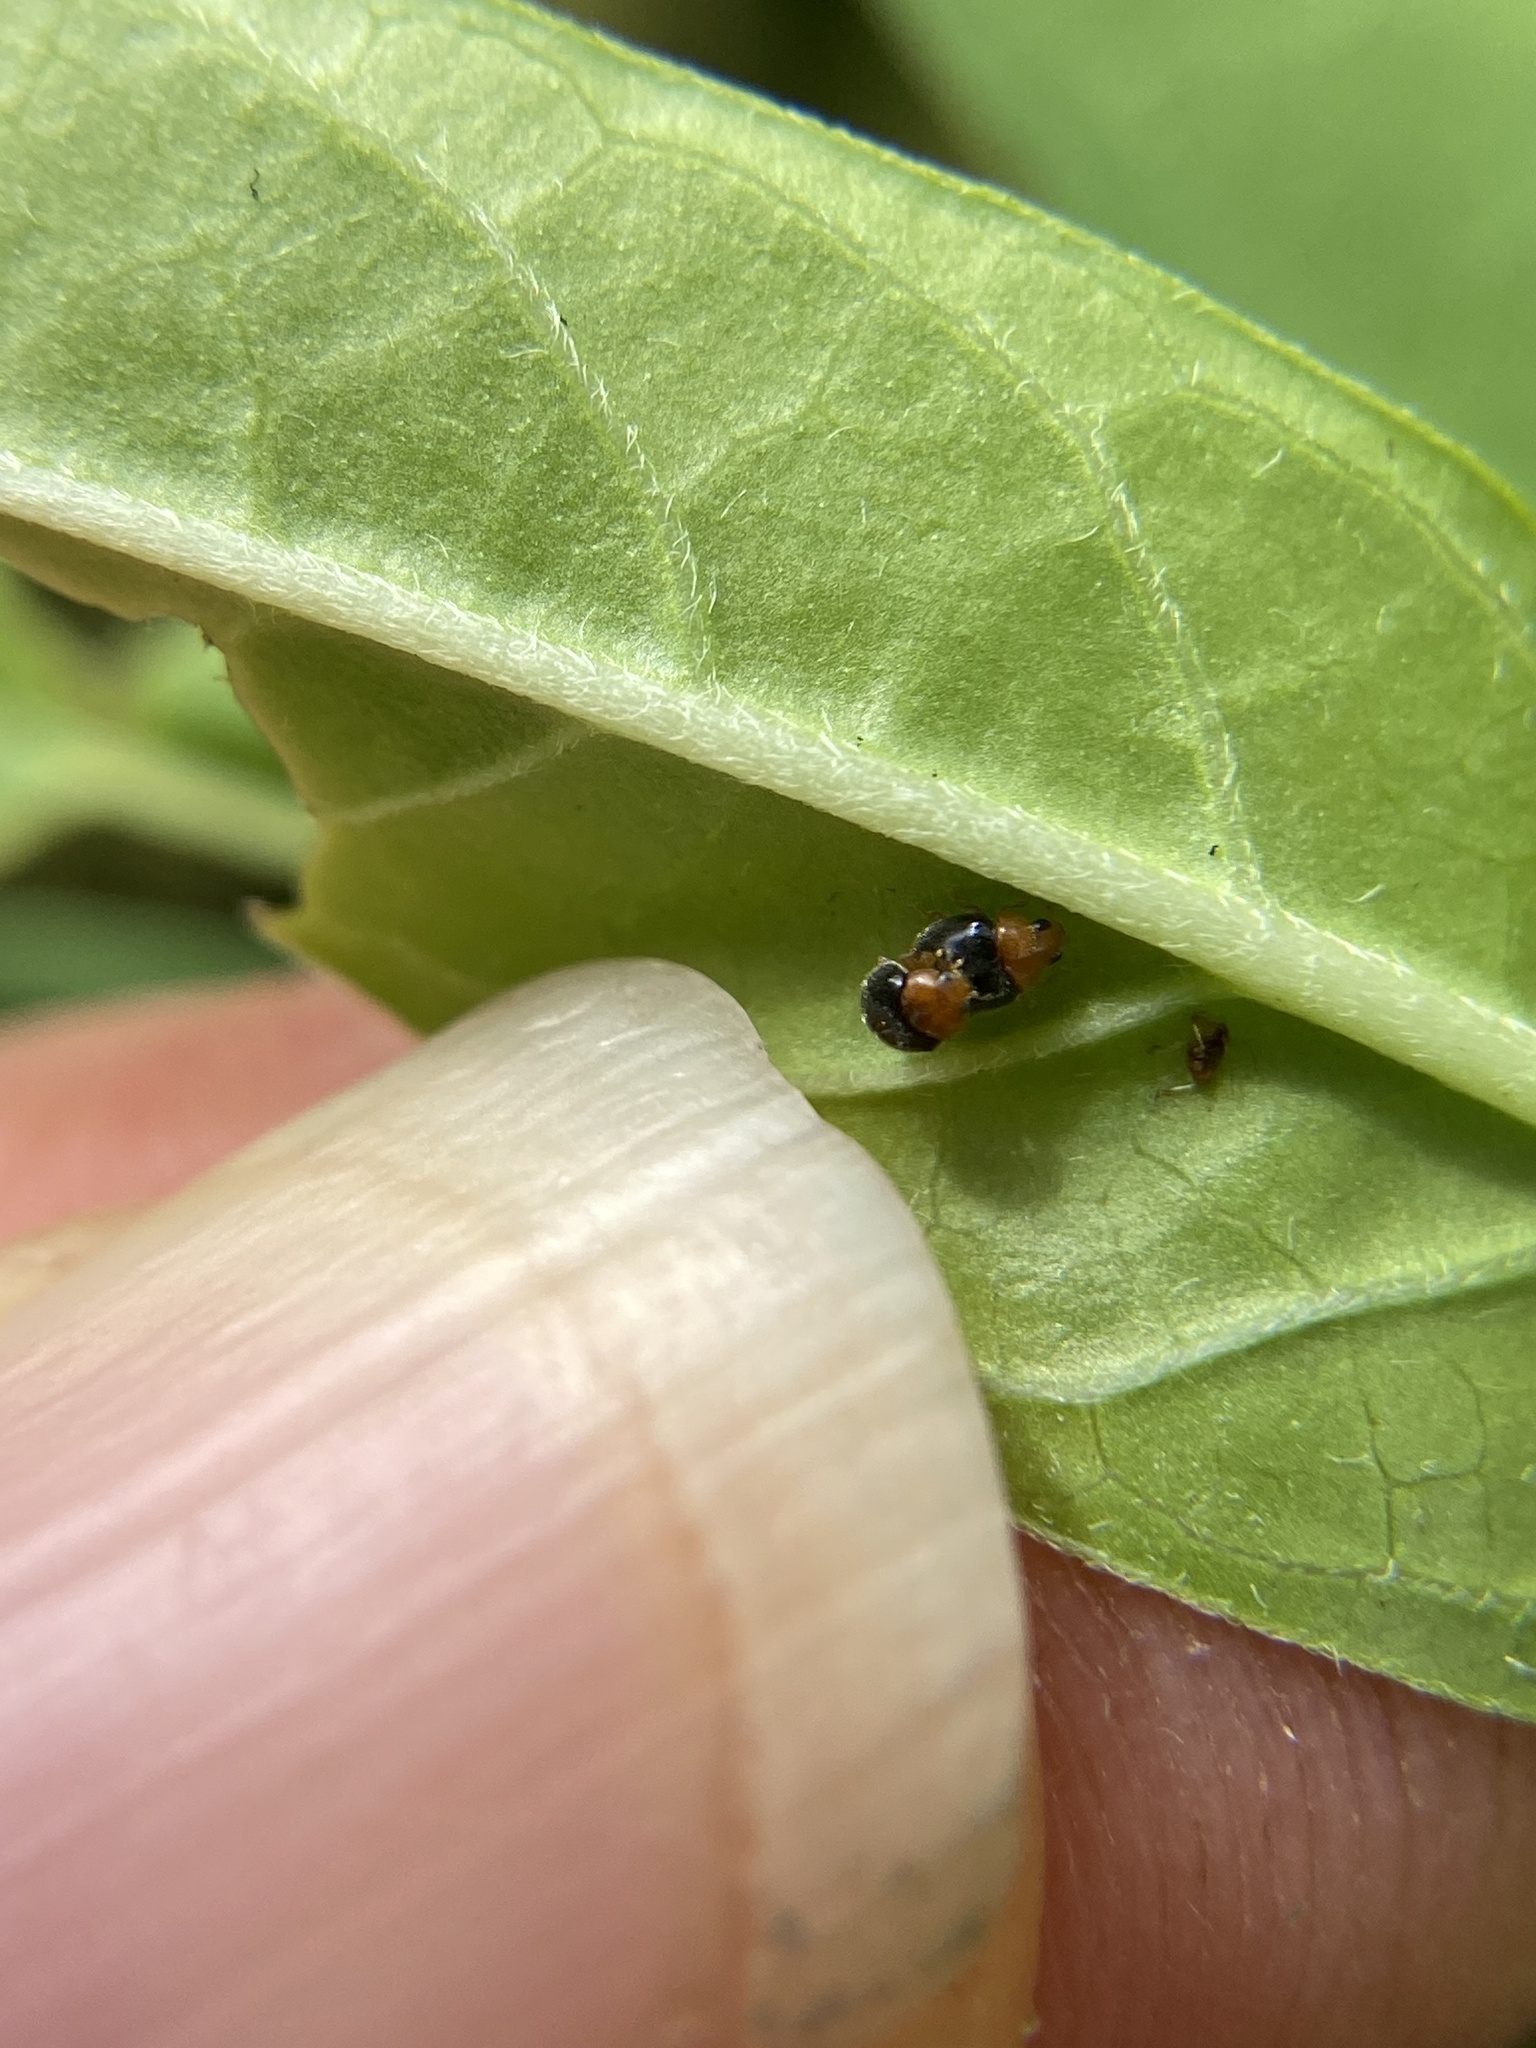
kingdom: Animalia
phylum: Arthropoda
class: Insecta
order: Coleoptera
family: Coccinellidae
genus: Diomus
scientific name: Diomus roseicollis
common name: Ladybird beetle
